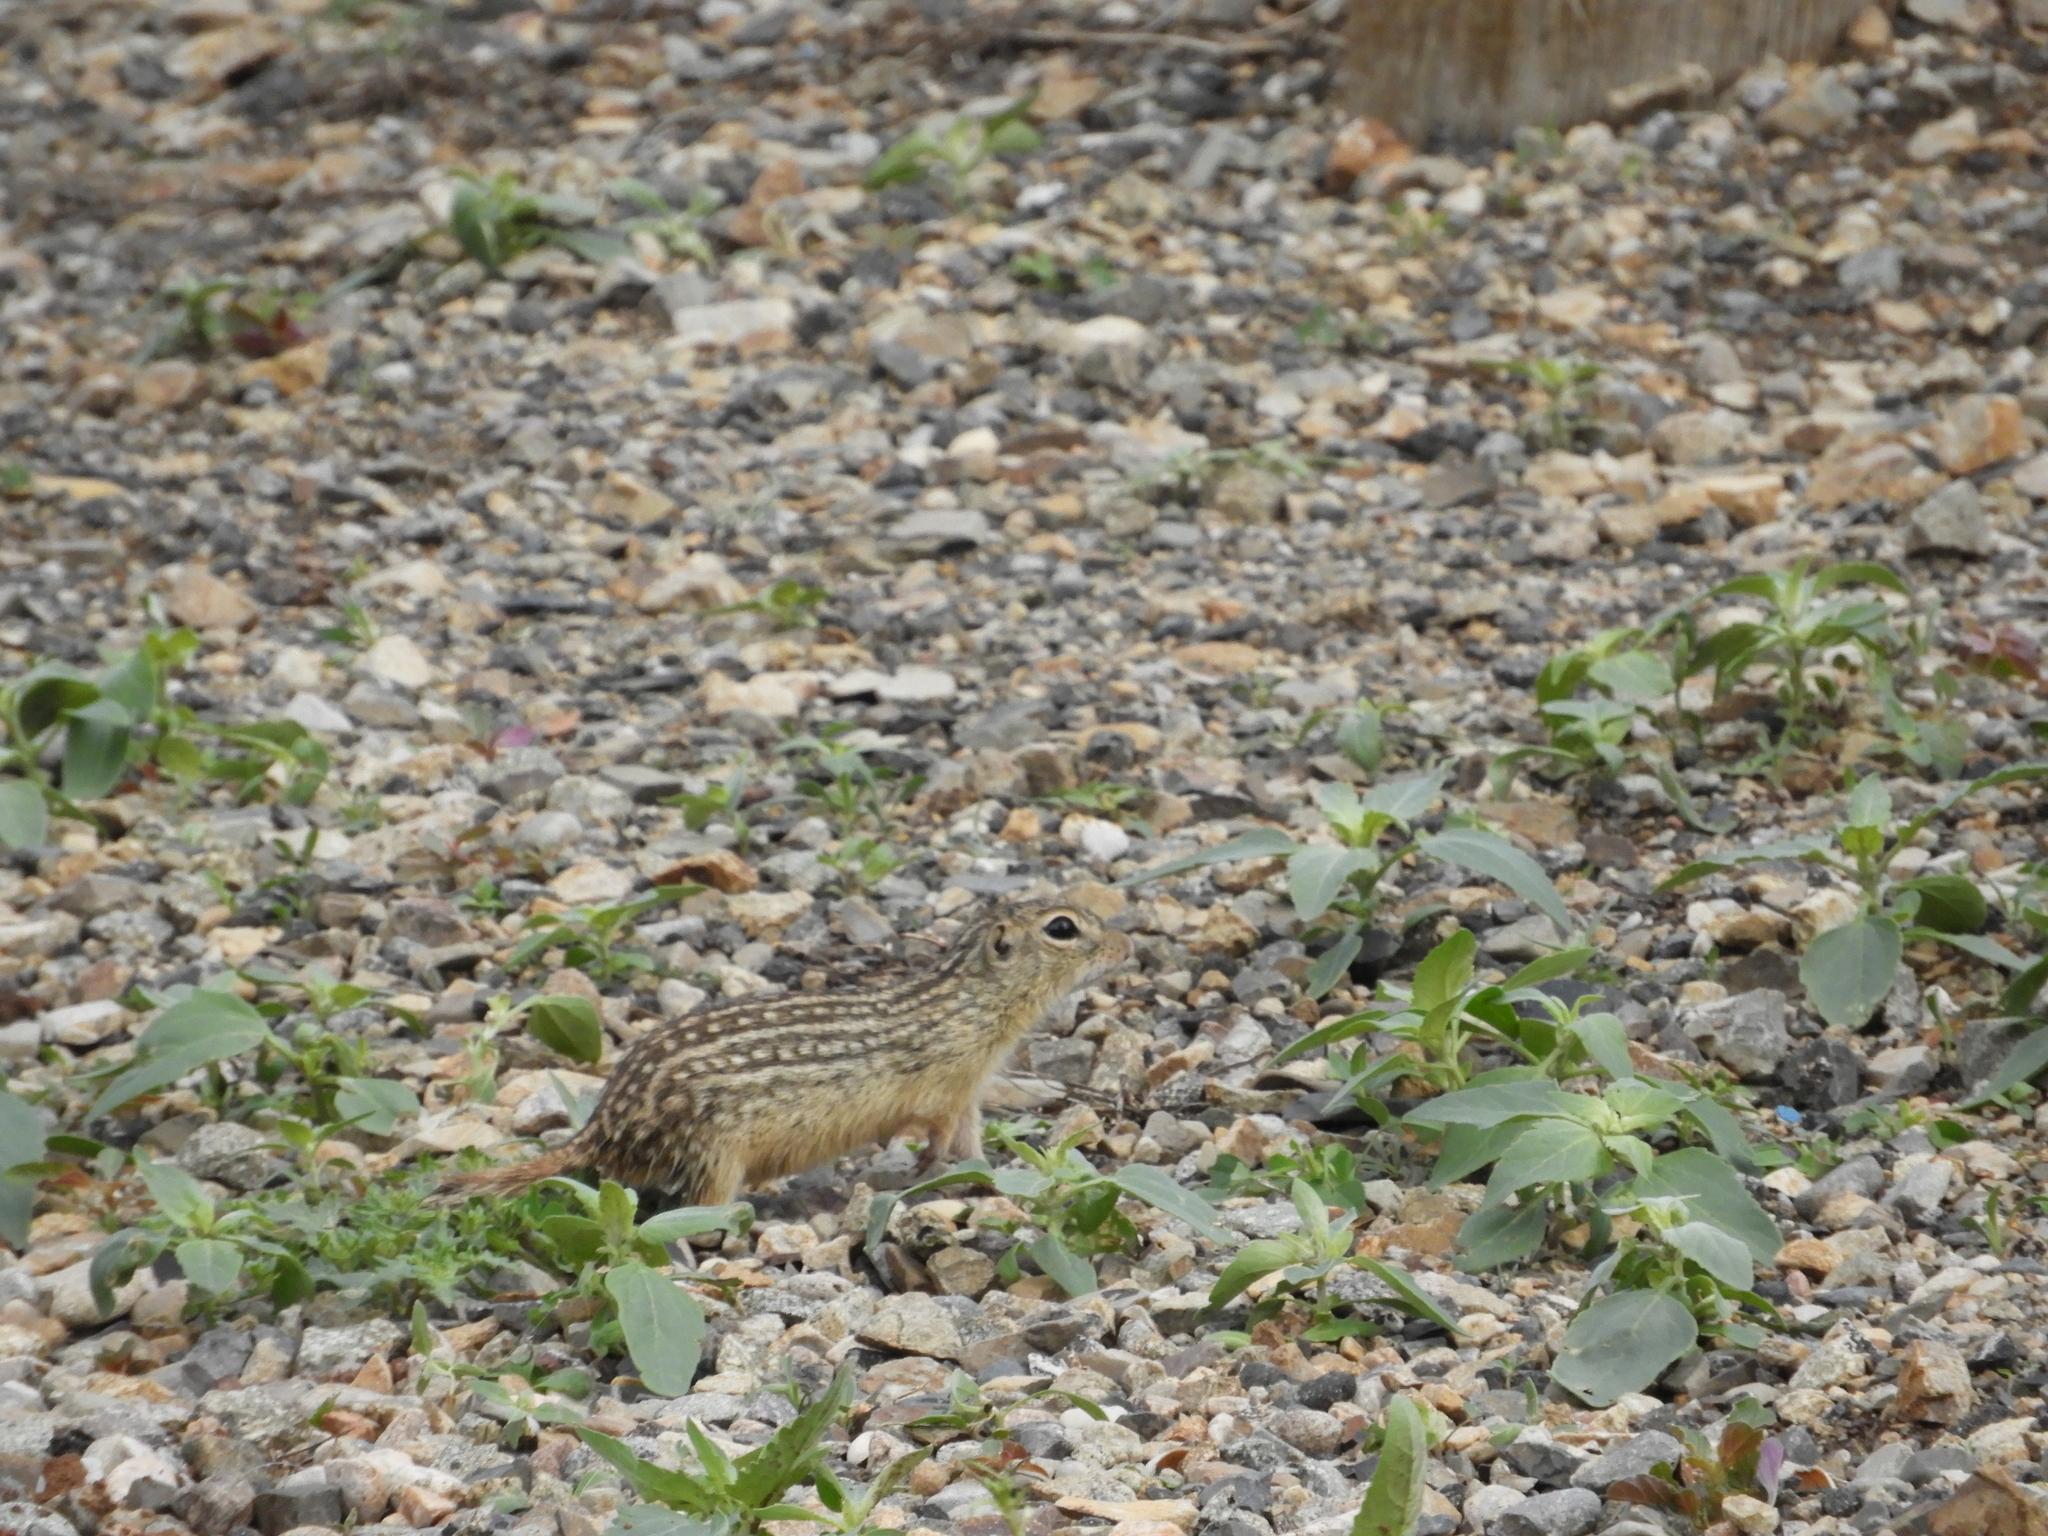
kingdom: Animalia
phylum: Chordata
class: Mammalia
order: Rodentia
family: Sciuridae
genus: Ictidomys
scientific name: Ictidomys tridecemlineatus
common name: Thirteen-lined ground squirrel
